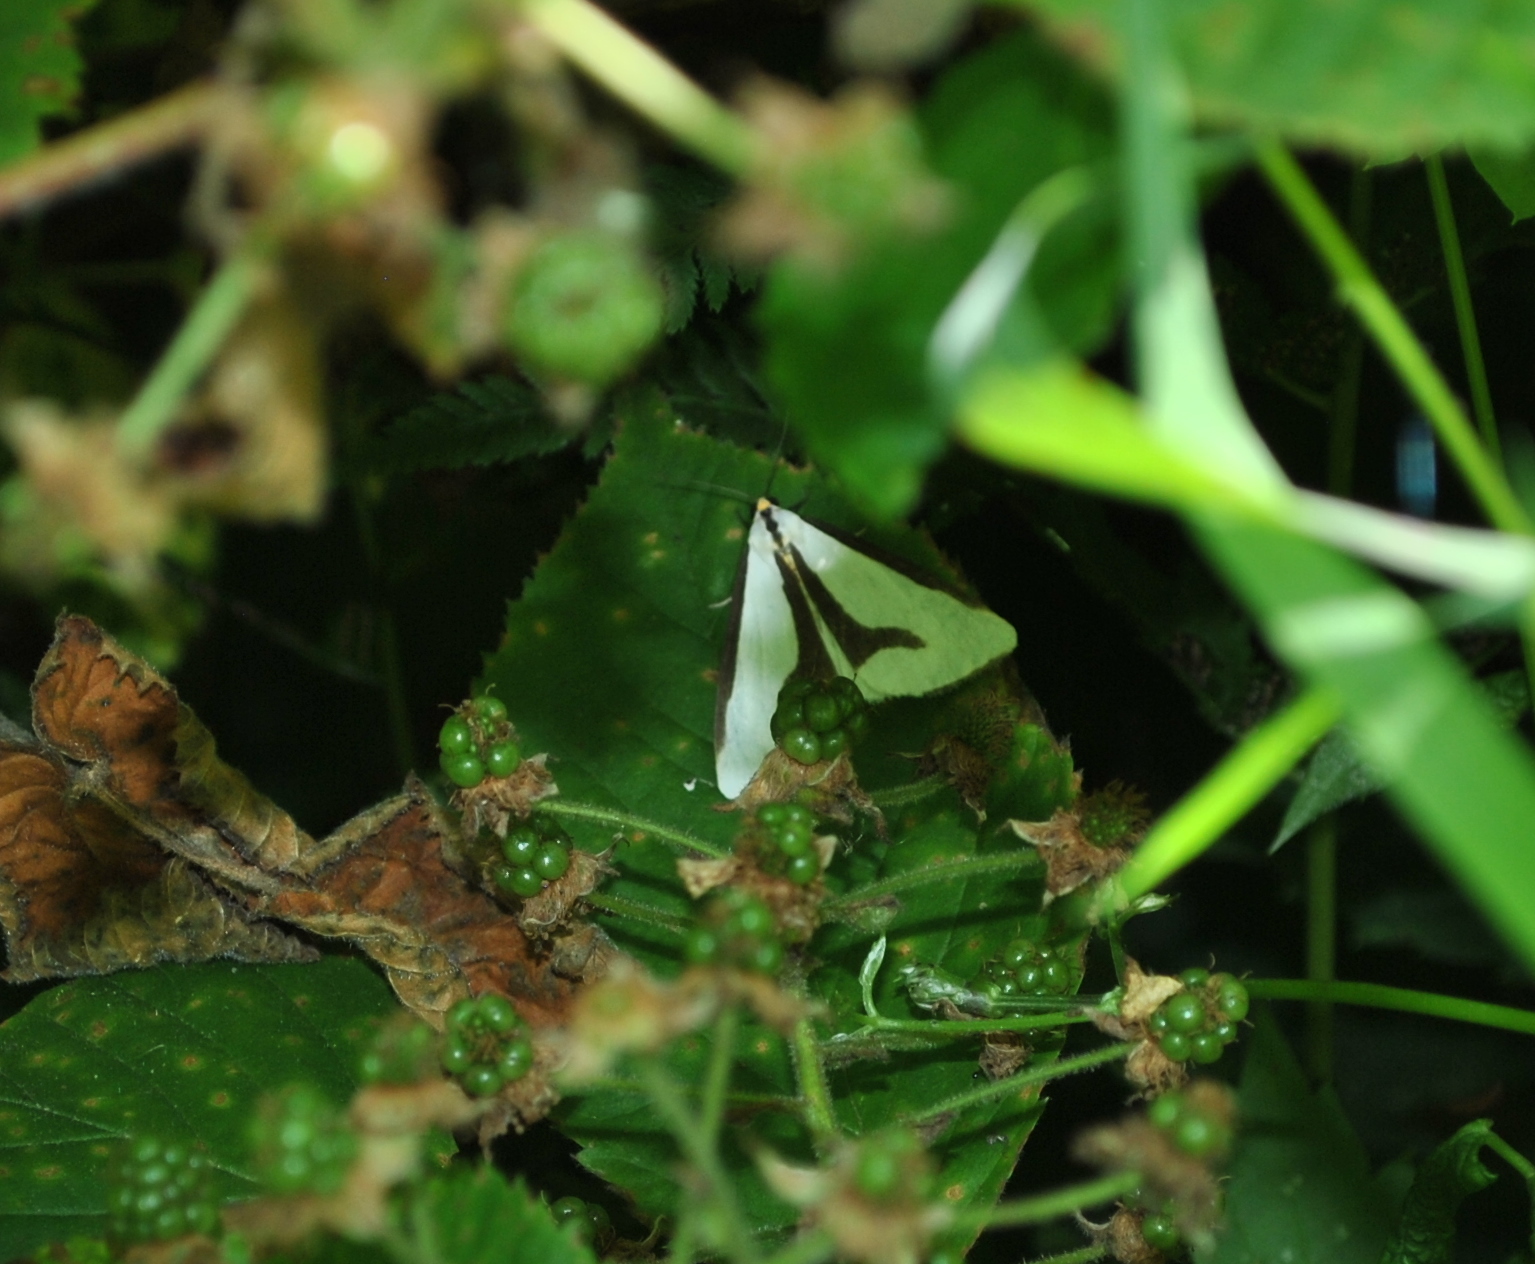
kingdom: Animalia
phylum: Arthropoda
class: Insecta
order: Lepidoptera
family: Erebidae
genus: Haploa
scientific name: Haploa lecontei
